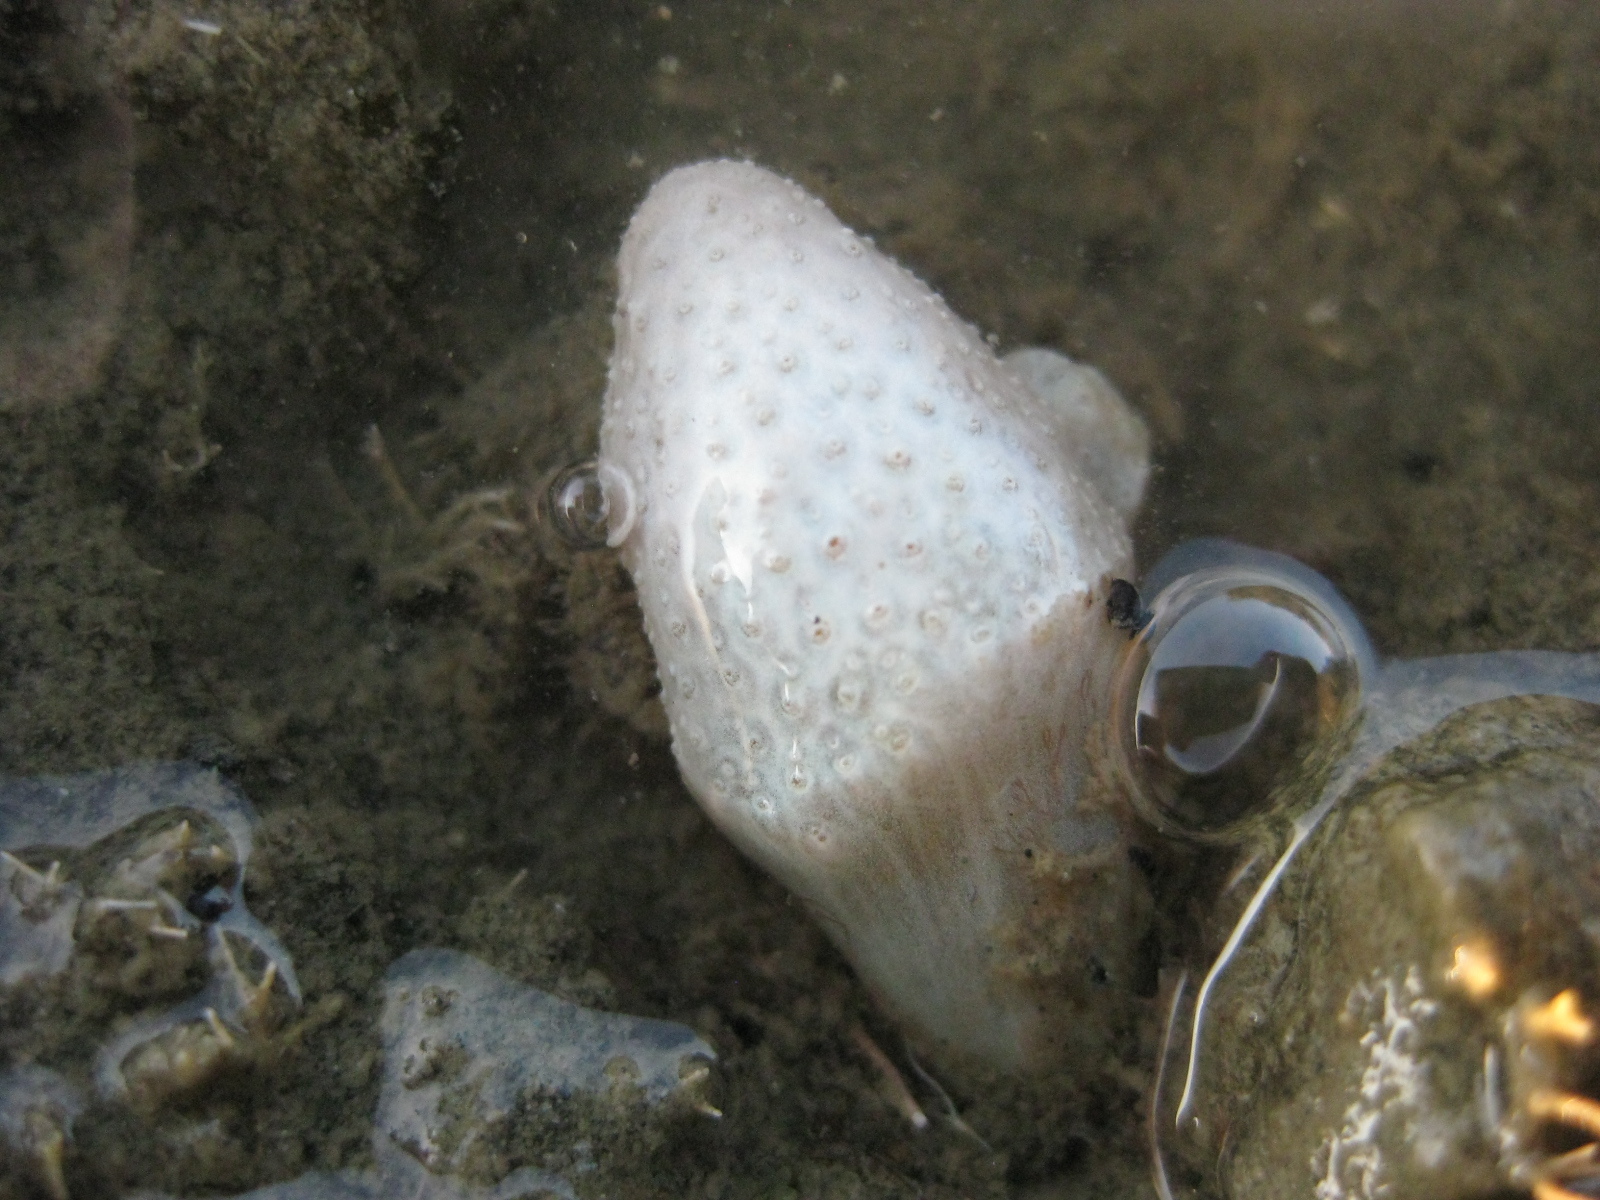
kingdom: Animalia
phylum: Chordata
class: Ascidiacea
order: Aplousobranchia
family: Polycitoridae
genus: Eudistoma
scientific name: Eudistoma elongatum
